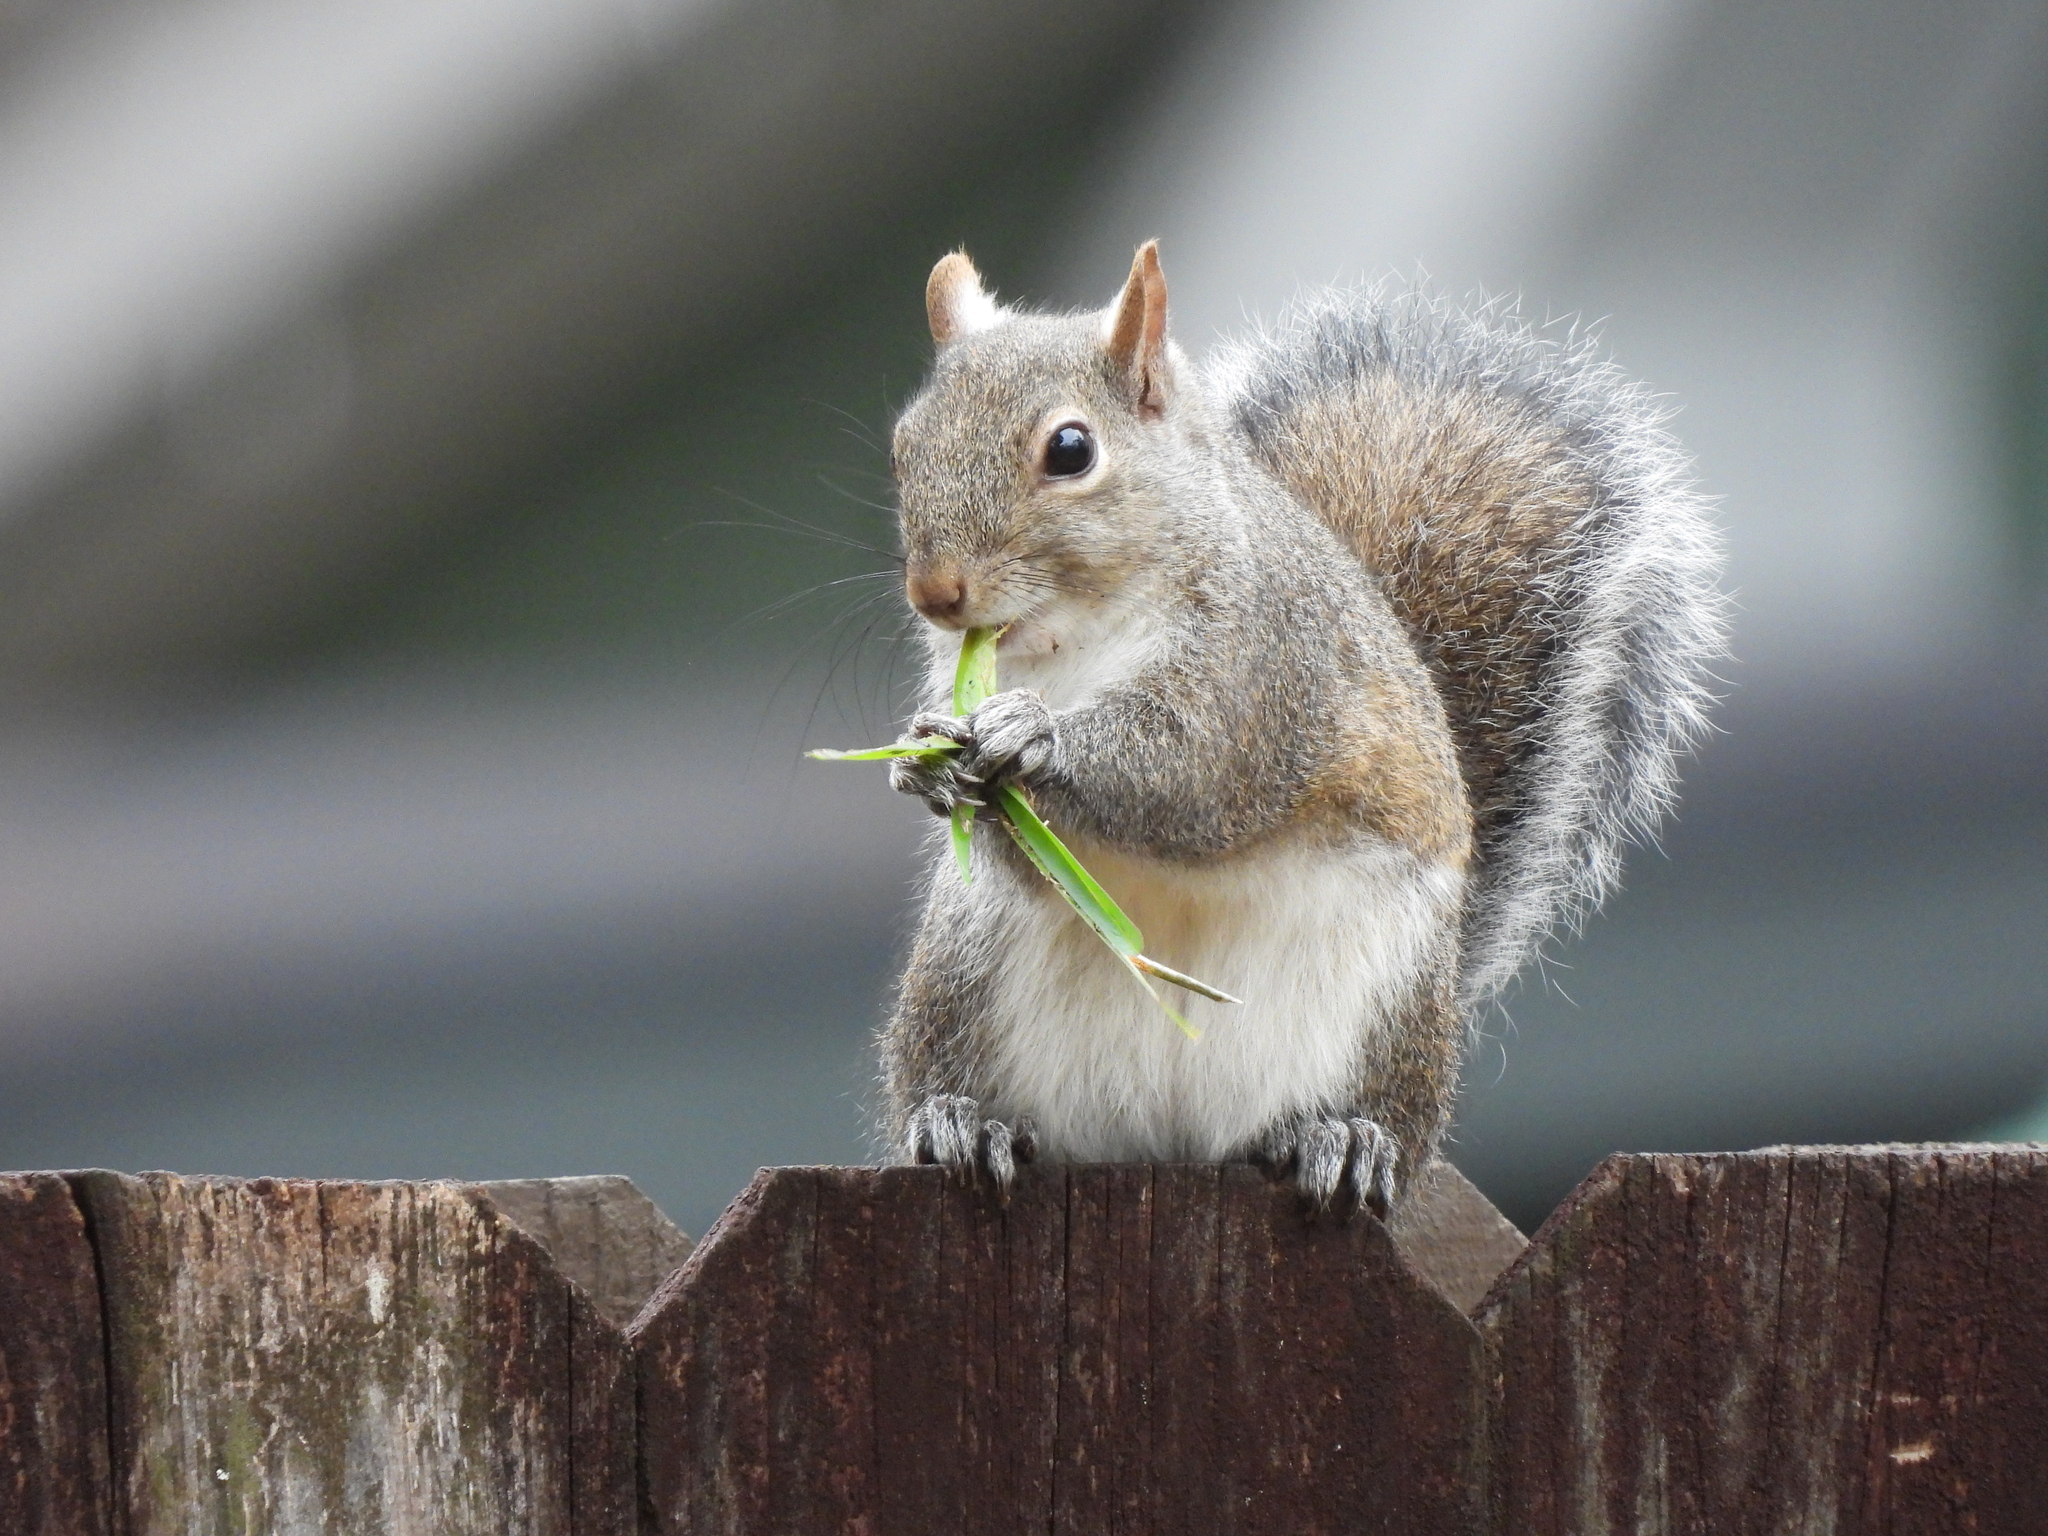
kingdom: Animalia
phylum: Chordata
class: Mammalia
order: Rodentia
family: Sciuridae
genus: Sciurus
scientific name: Sciurus carolinensis
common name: Eastern gray squirrel
